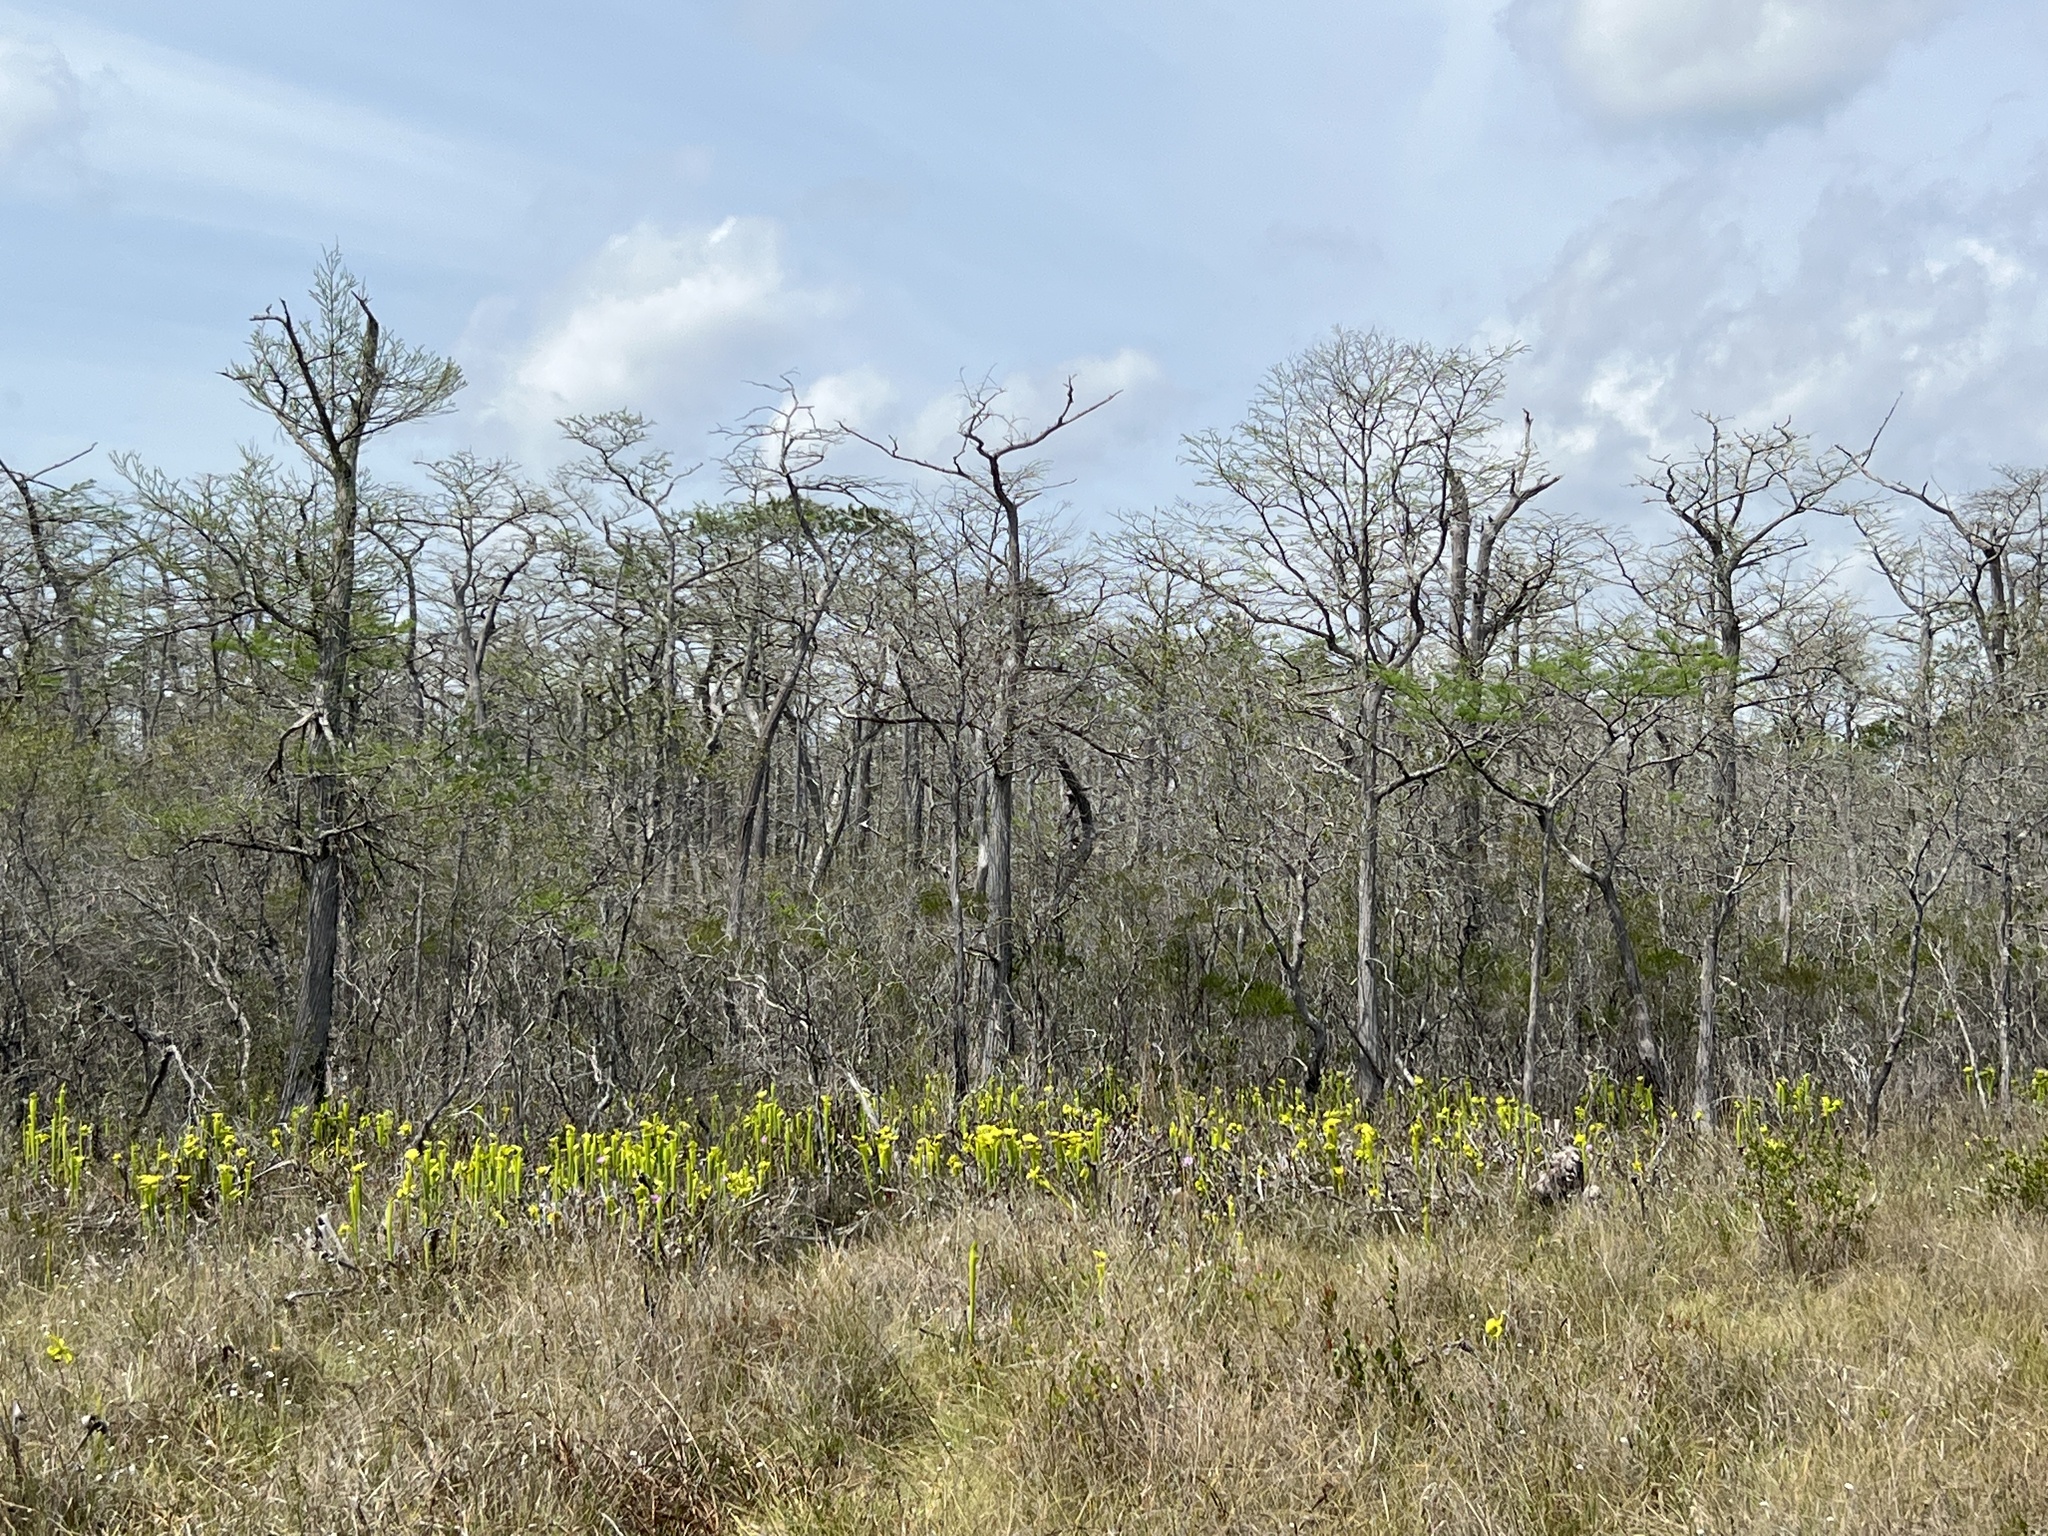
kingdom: Plantae
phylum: Tracheophyta
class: Pinopsida
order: Pinales
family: Cupressaceae
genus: Taxodium
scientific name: Taxodium distichum
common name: Bald cypress
